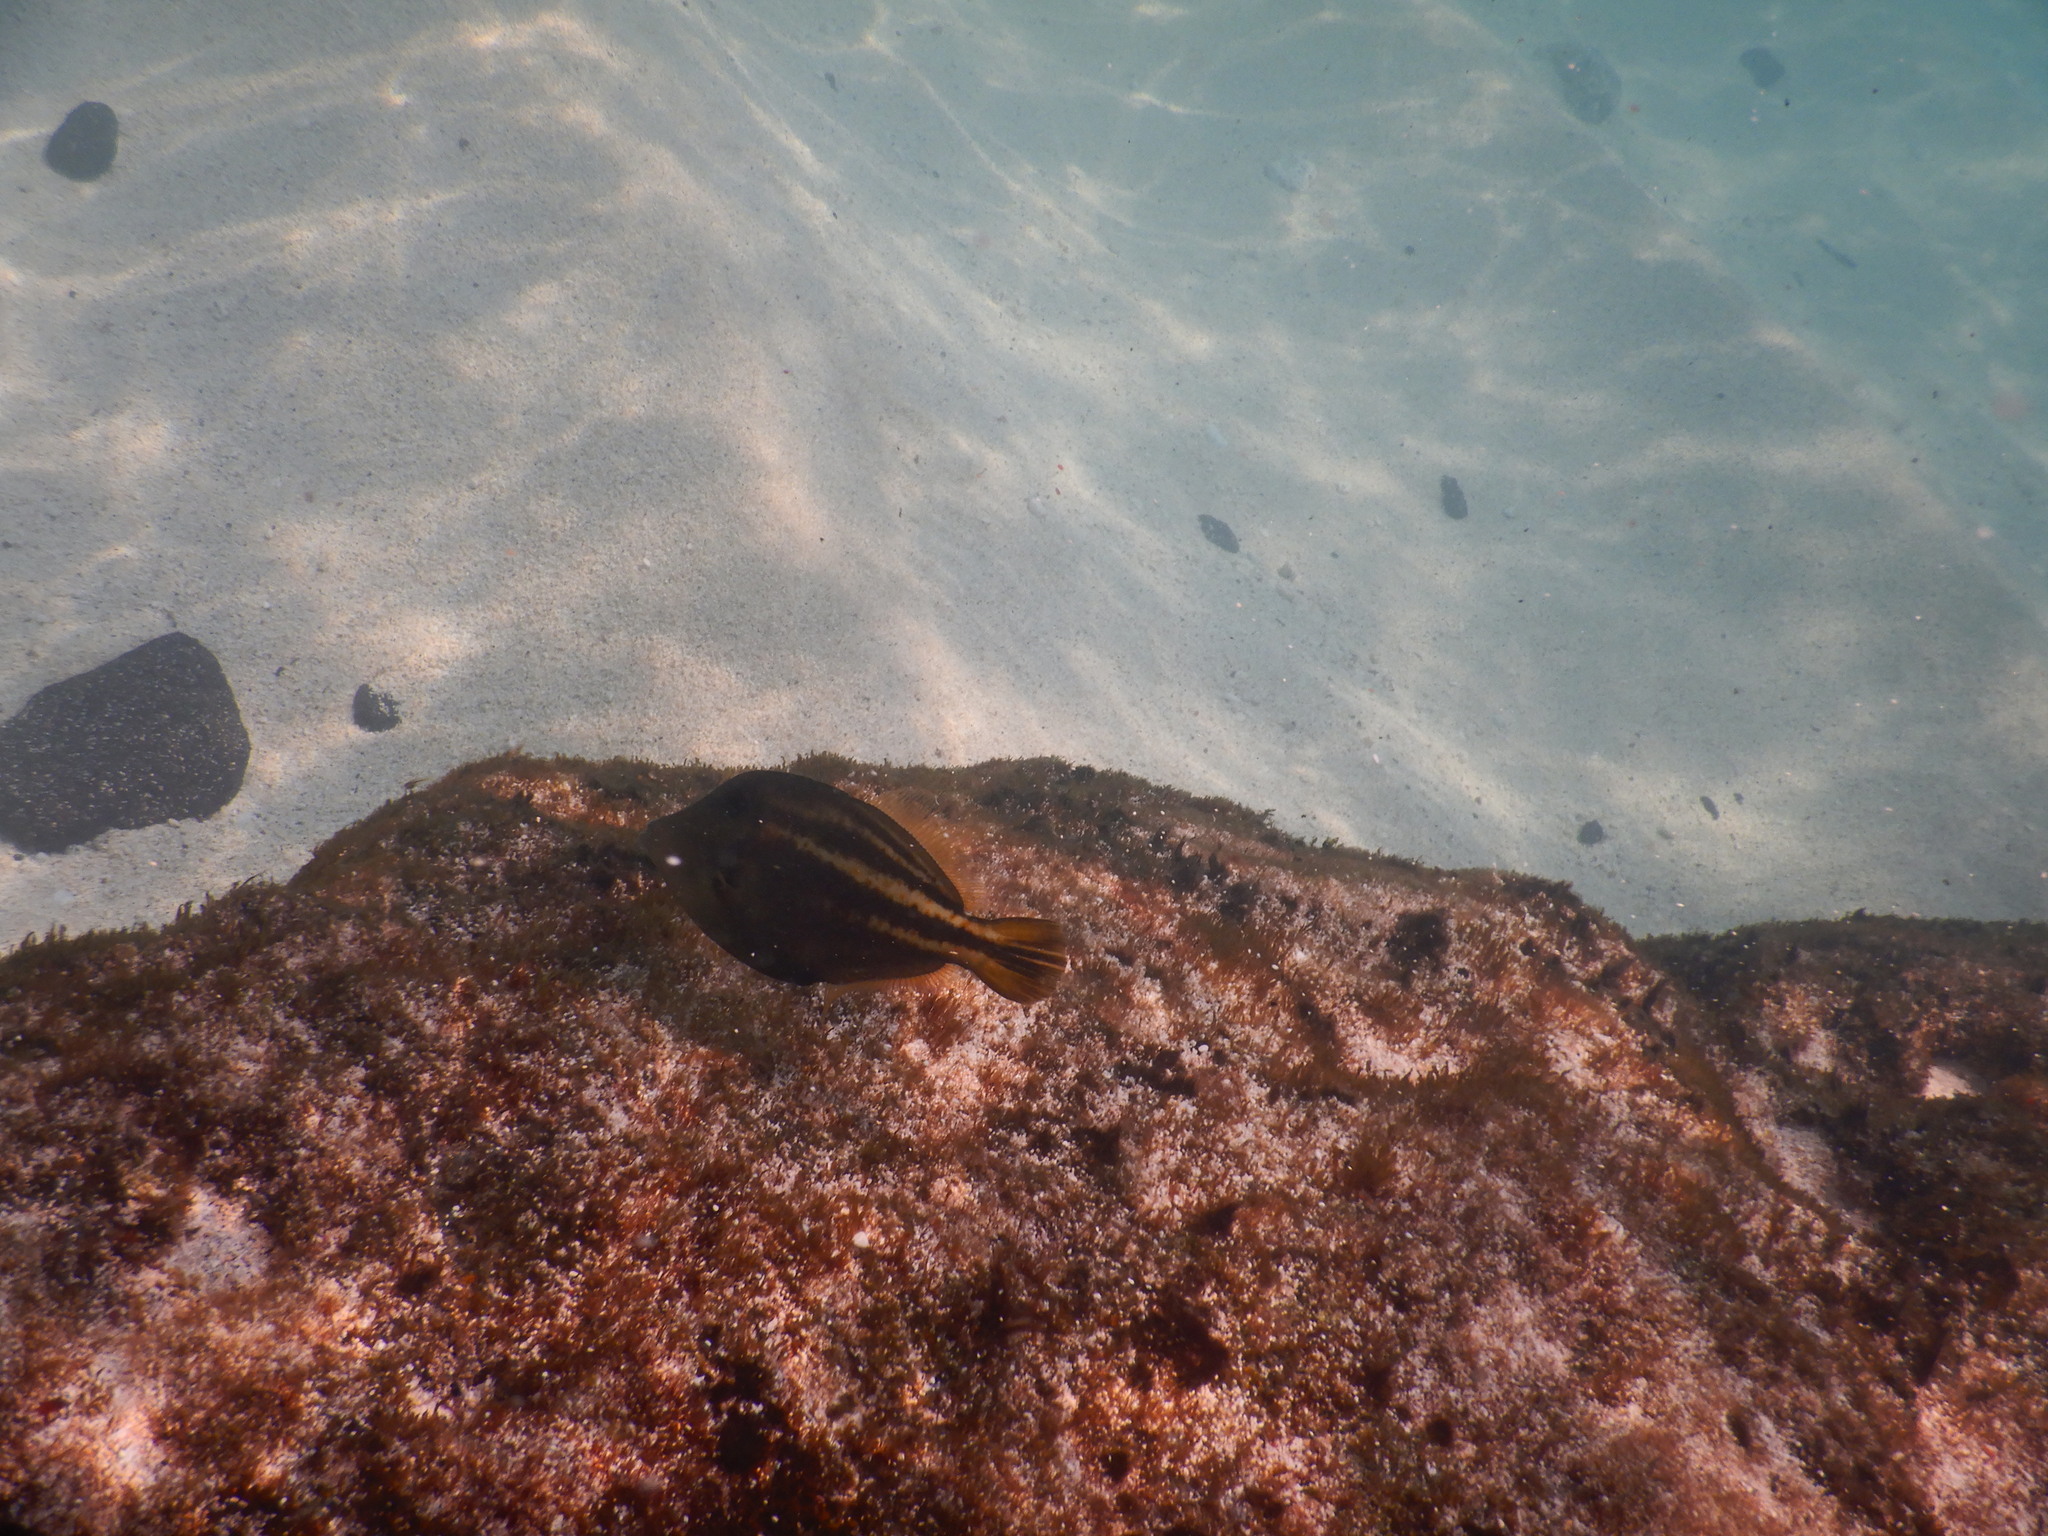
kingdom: Animalia
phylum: Chordata
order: Tetraodontiformes
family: Monacanthidae
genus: Cantherhines
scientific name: Cantherhines pullus
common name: Orangespotted filefish
